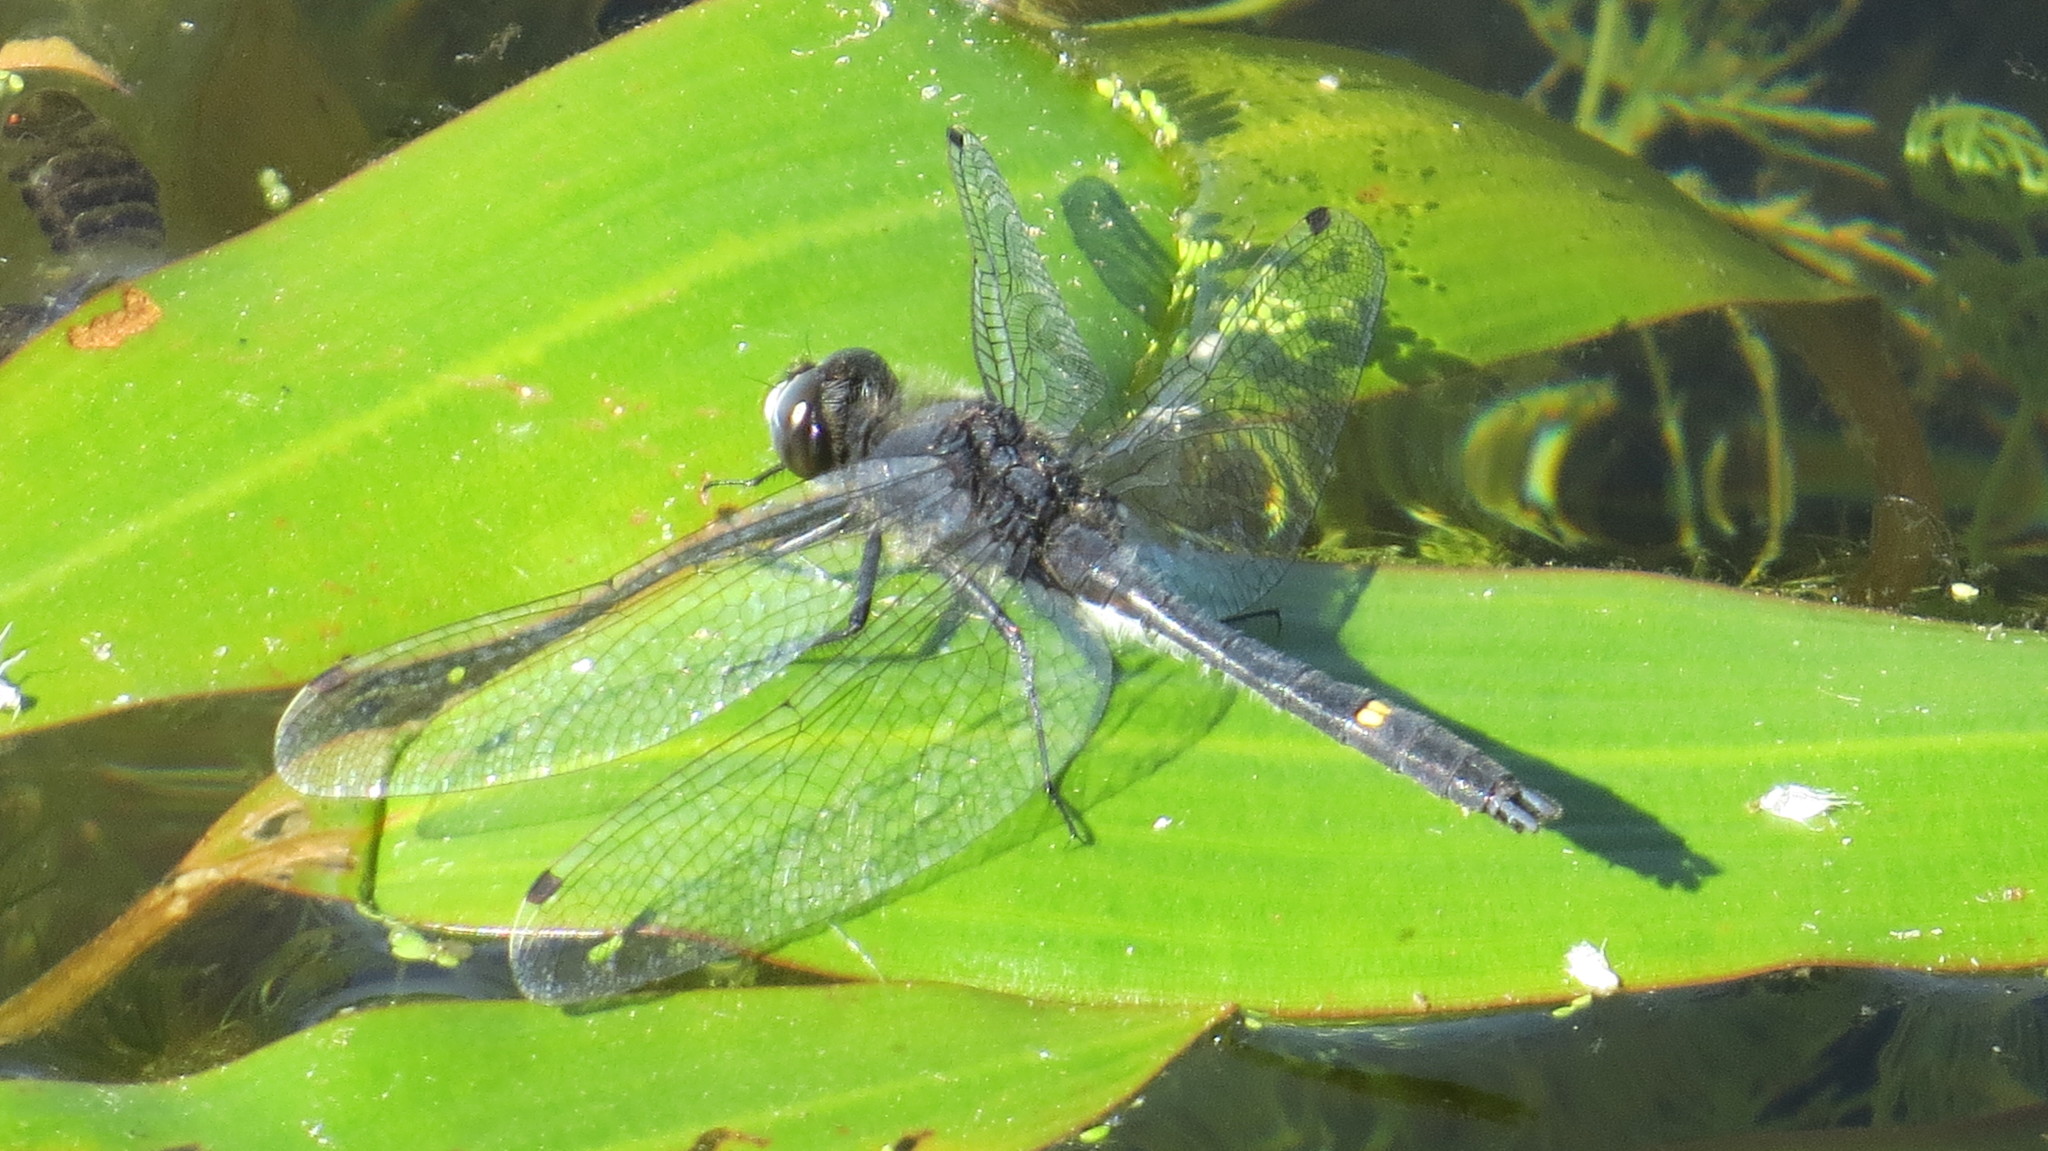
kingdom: Animalia
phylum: Arthropoda
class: Insecta
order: Odonata
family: Libellulidae
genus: Leucorrhinia
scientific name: Leucorrhinia intacta
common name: Dot-tailed whiteface
